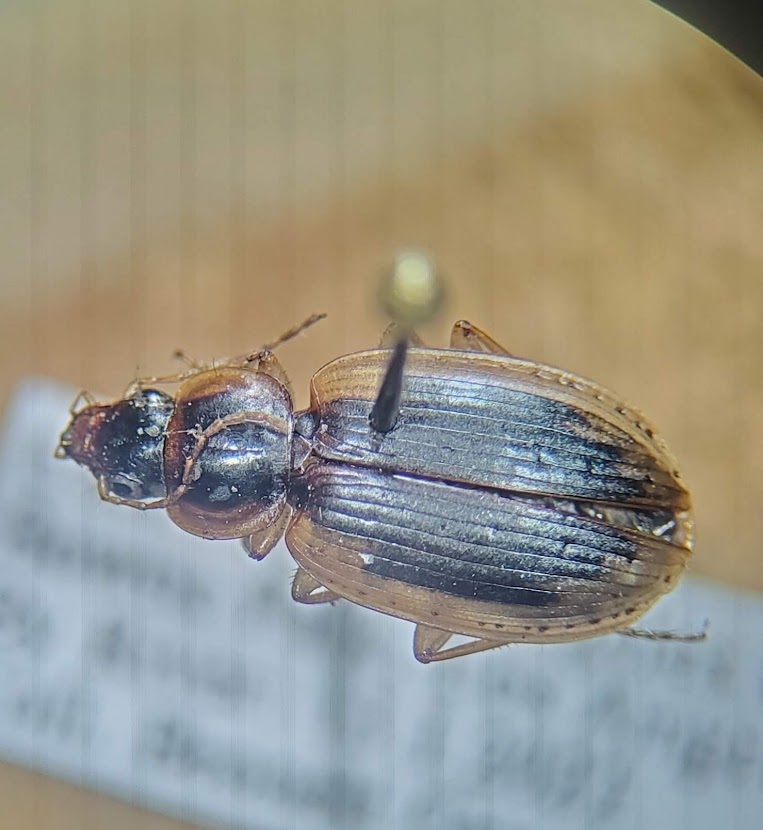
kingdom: Animalia
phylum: Arthropoda
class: Insecta
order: Coleoptera
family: Carabidae
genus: Tanystoma
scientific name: Tanystoma maculicolle
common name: Tule beetle
